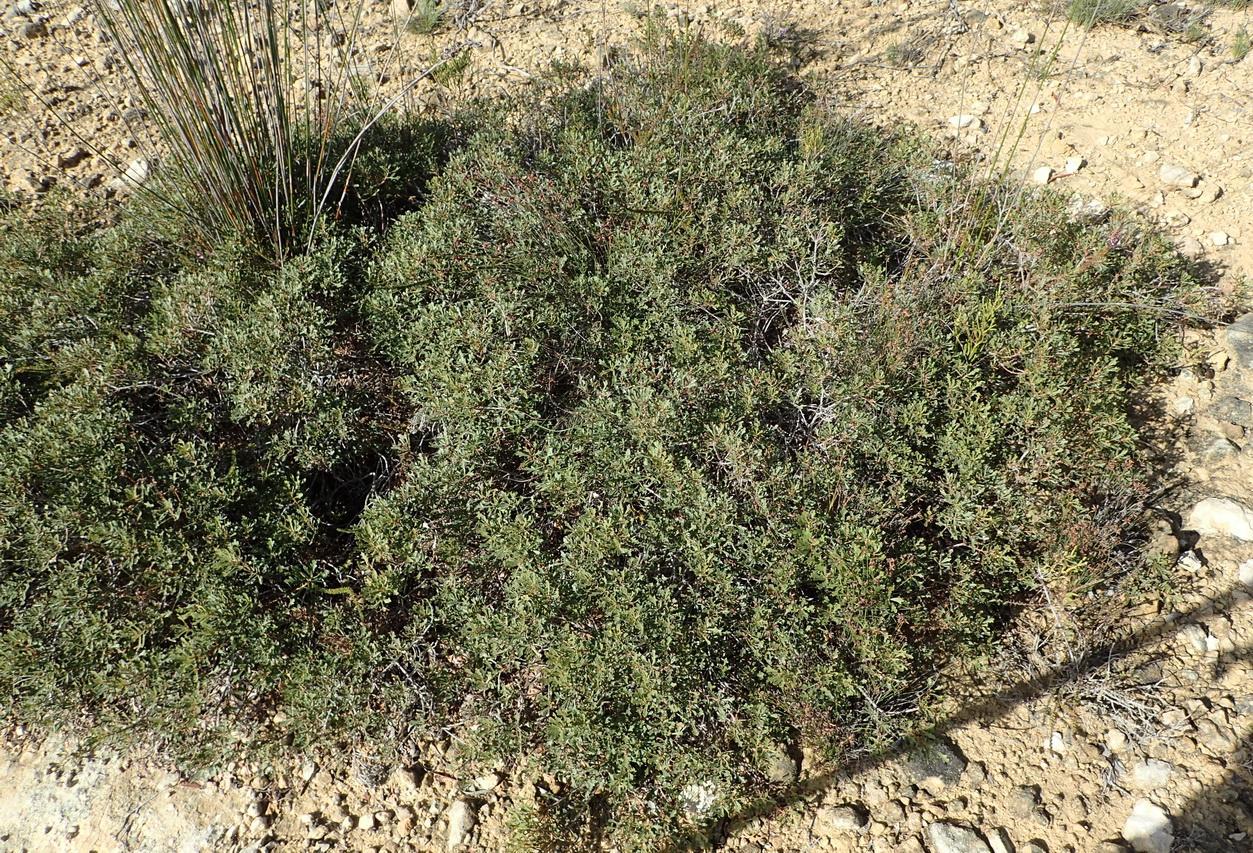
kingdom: Plantae
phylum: Tracheophyta
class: Magnoliopsida
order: Fagales
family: Myricaceae
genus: Morella
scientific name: Morella quercifolia
